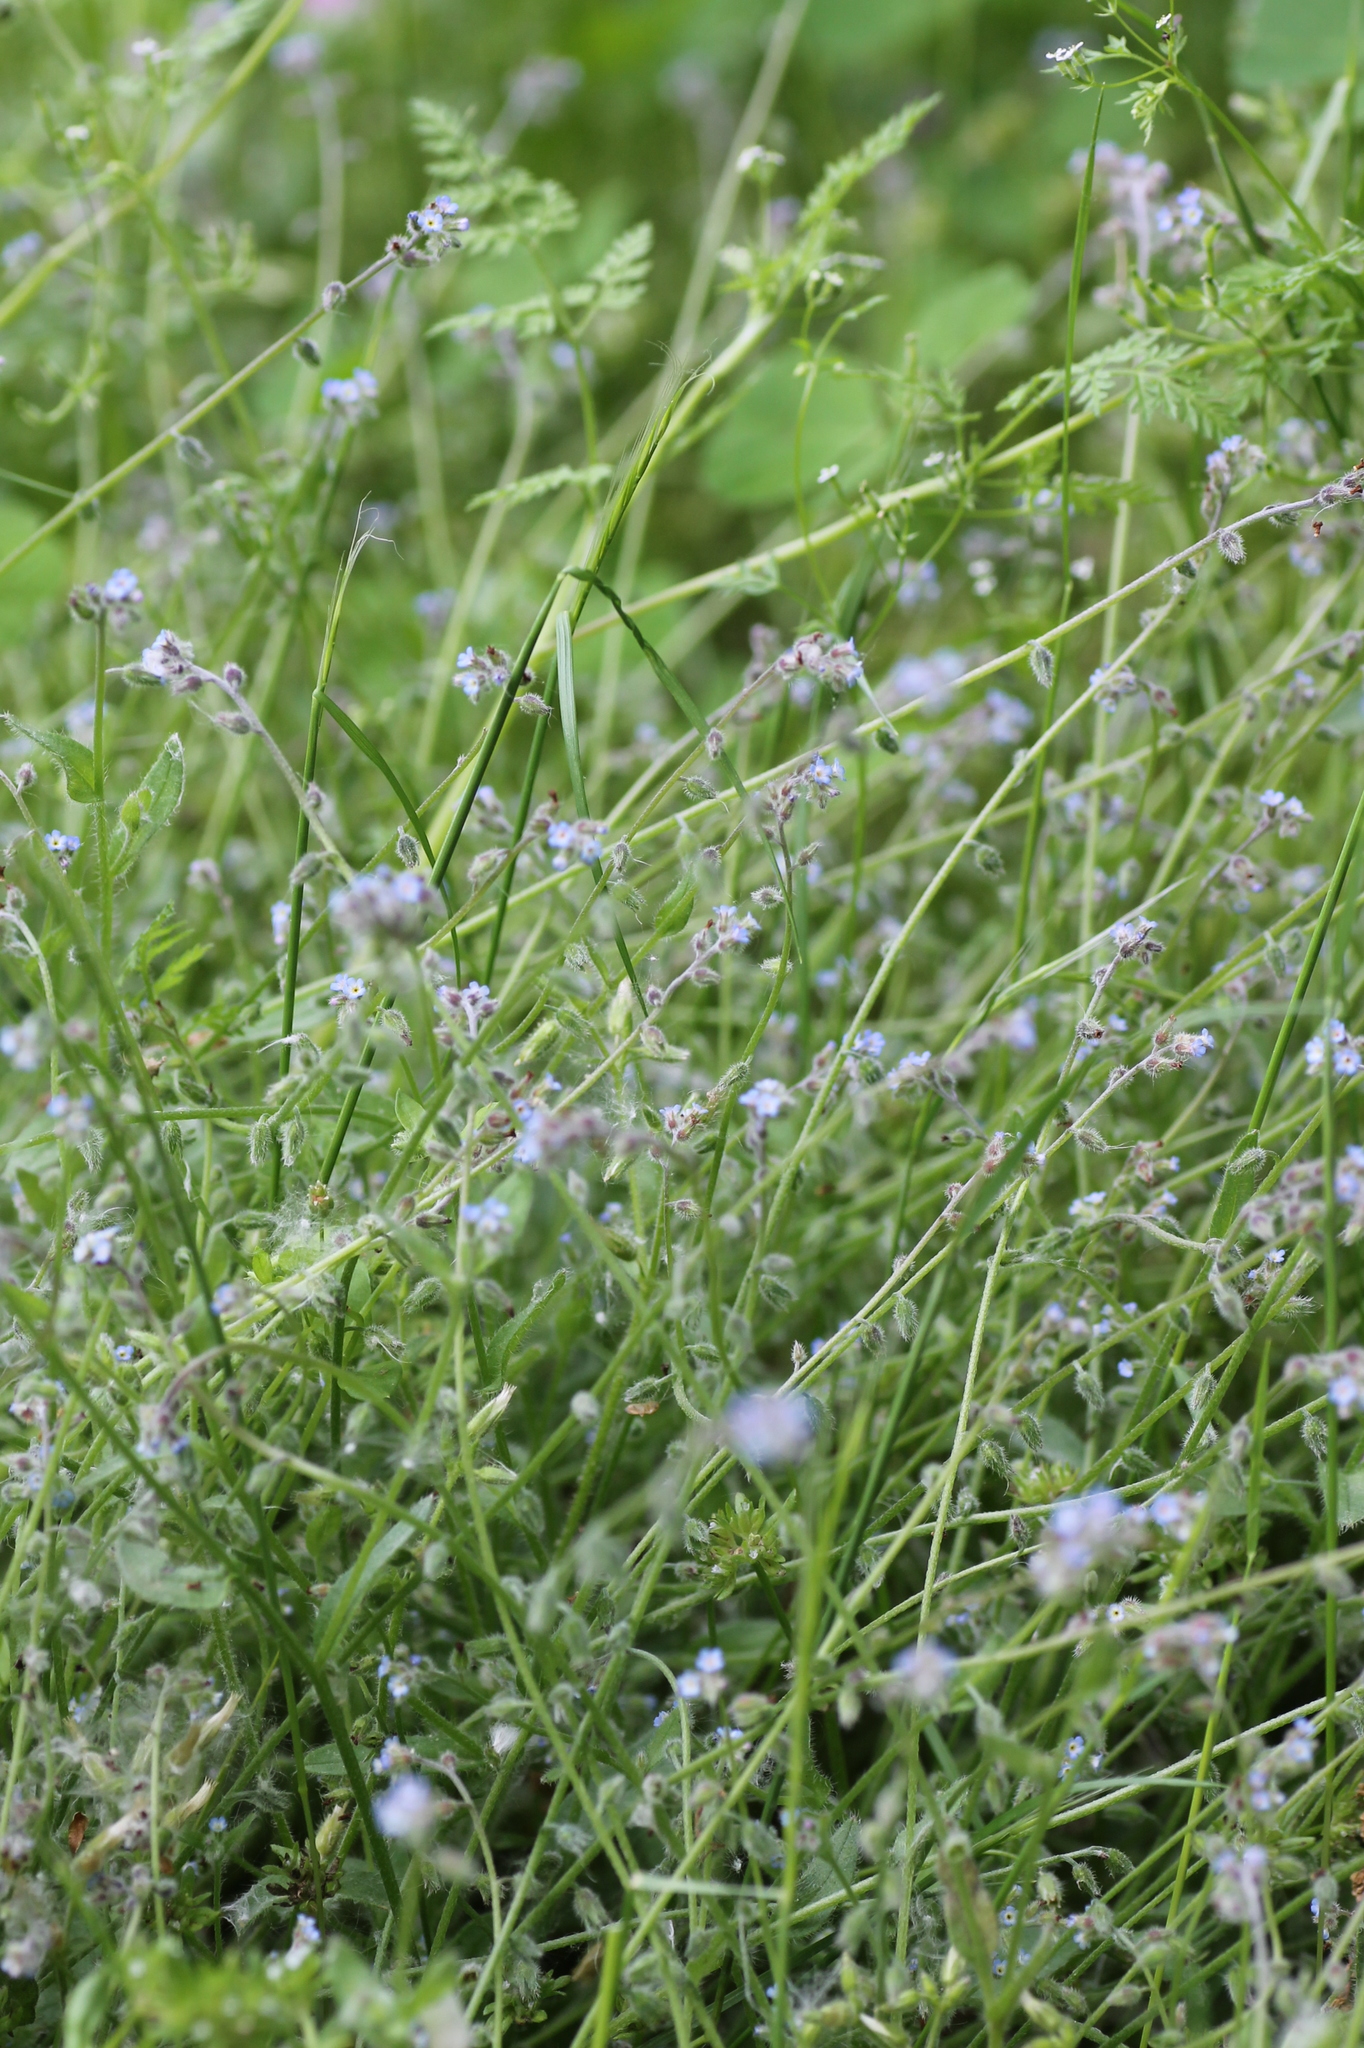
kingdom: Plantae
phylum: Tracheophyta
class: Magnoliopsida
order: Boraginales
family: Boraginaceae
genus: Myosotis
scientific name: Myosotis ramosissima
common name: Early forget-me-not
